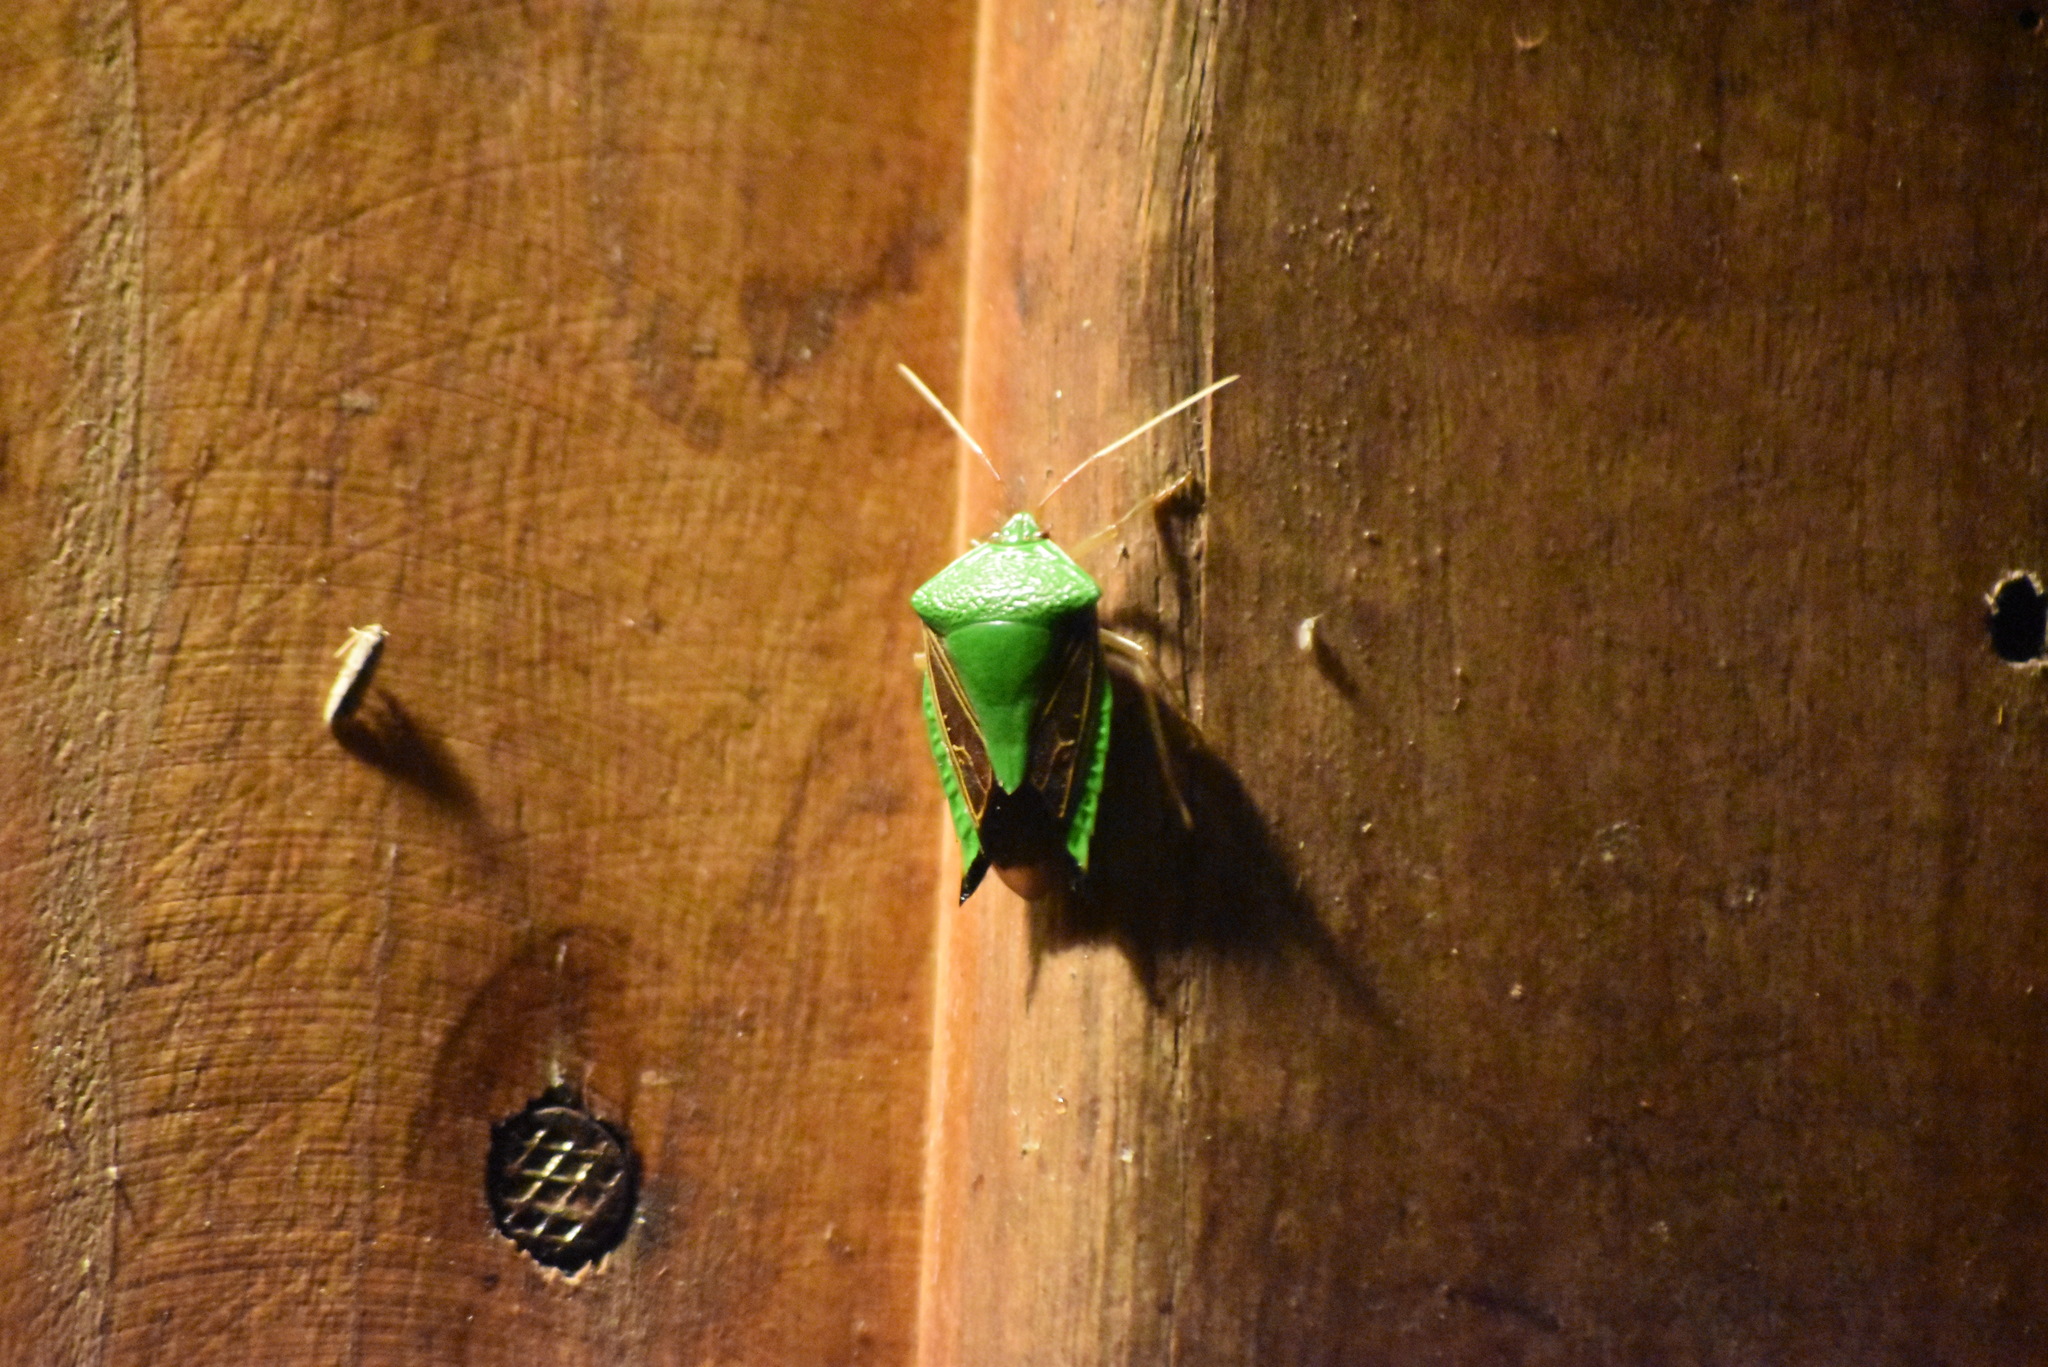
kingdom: Animalia
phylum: Arthropoda
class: Insecta
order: Hemiptera
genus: Pygoda
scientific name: Pygoda polita
